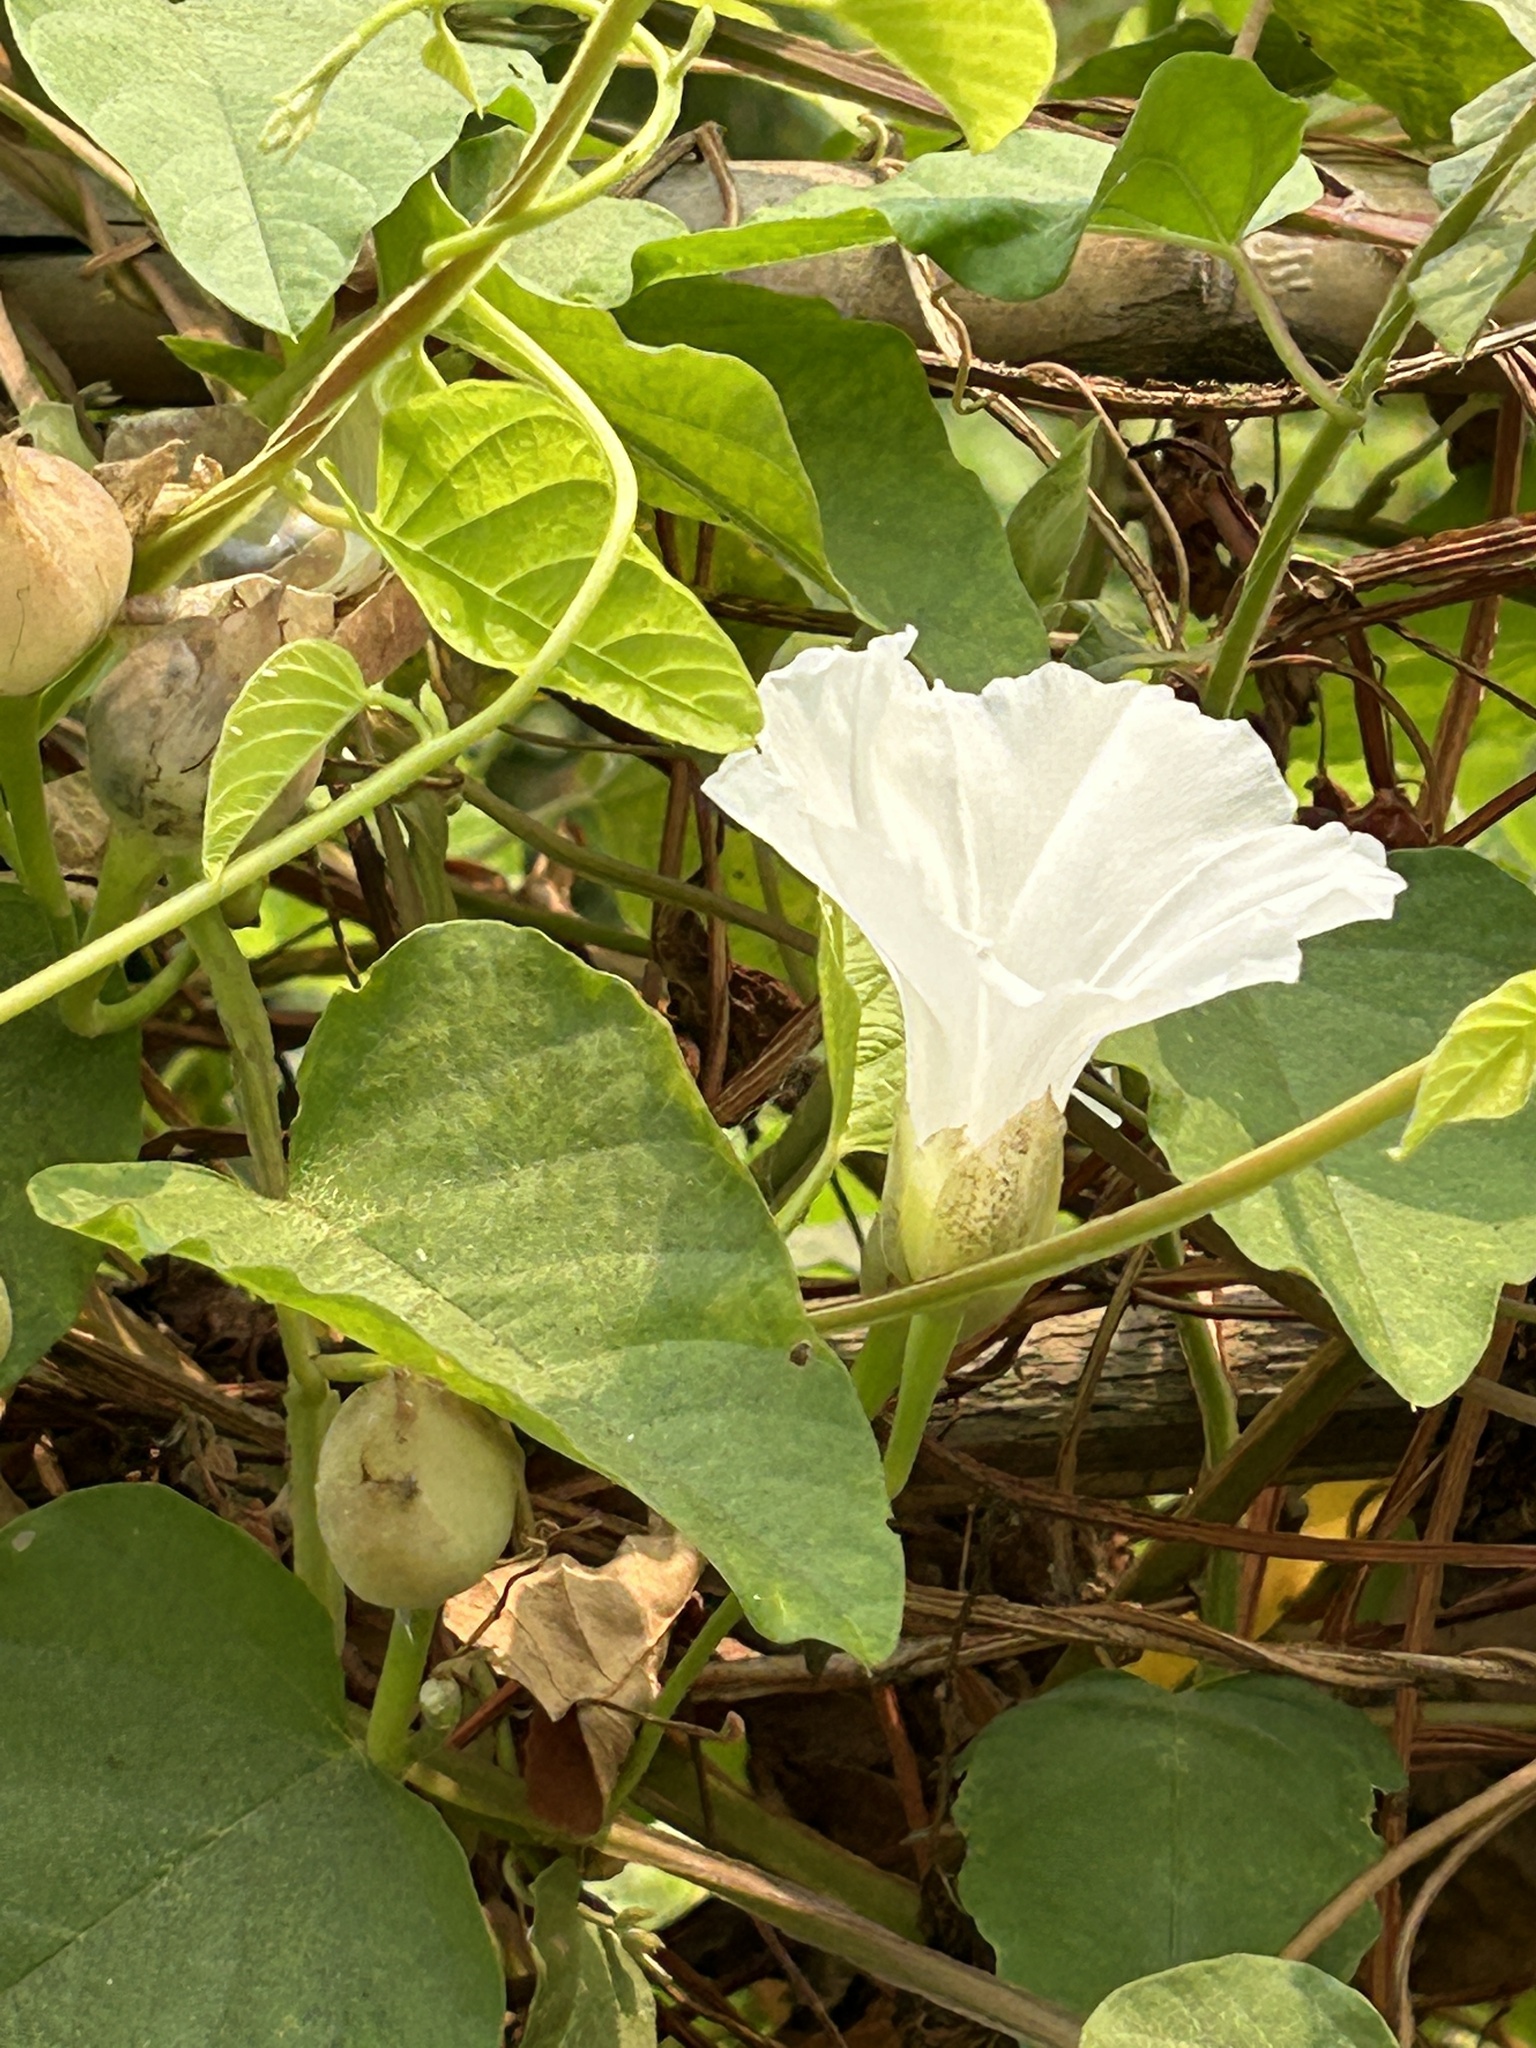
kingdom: Plantae
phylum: Tracheophyta
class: Magnoliopsida
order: Solanales
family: Convolvulaceae
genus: Operculina
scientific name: Operculina turpethum
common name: Transparent wood-rose
